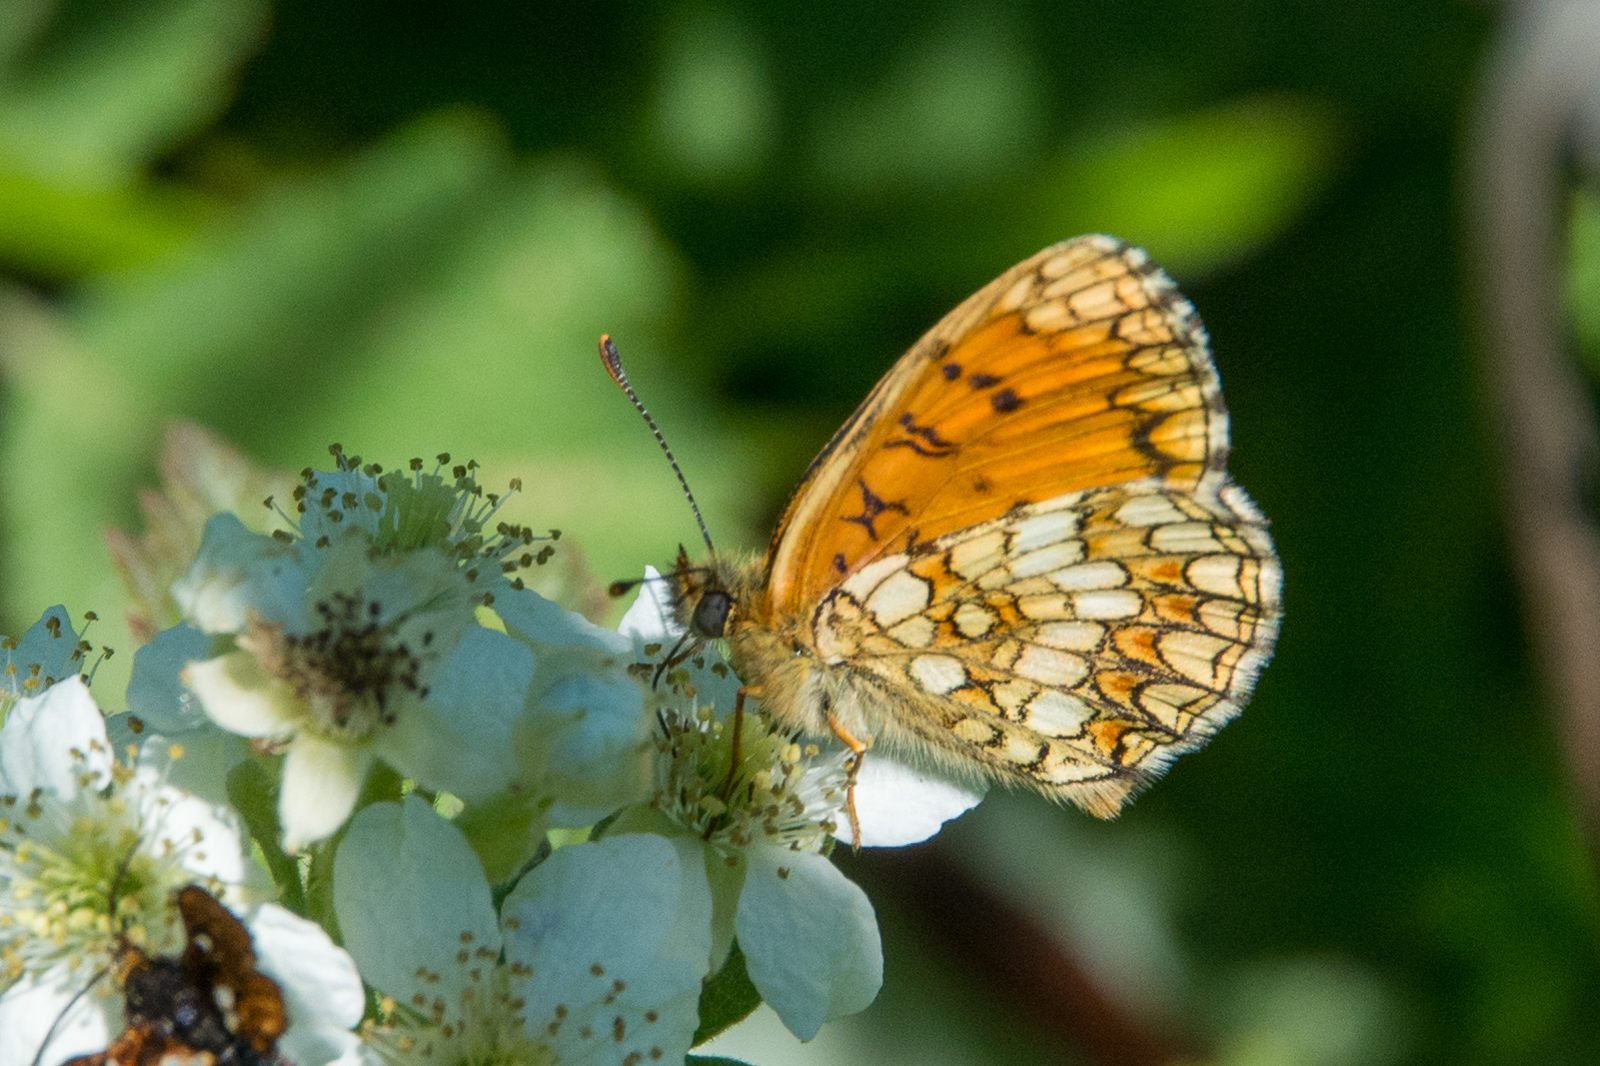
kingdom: Animalia
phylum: Arthropoda
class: Insecta
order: Lepidoptera
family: Nymphalidae
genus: Mellicta
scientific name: Mellicta athalia
